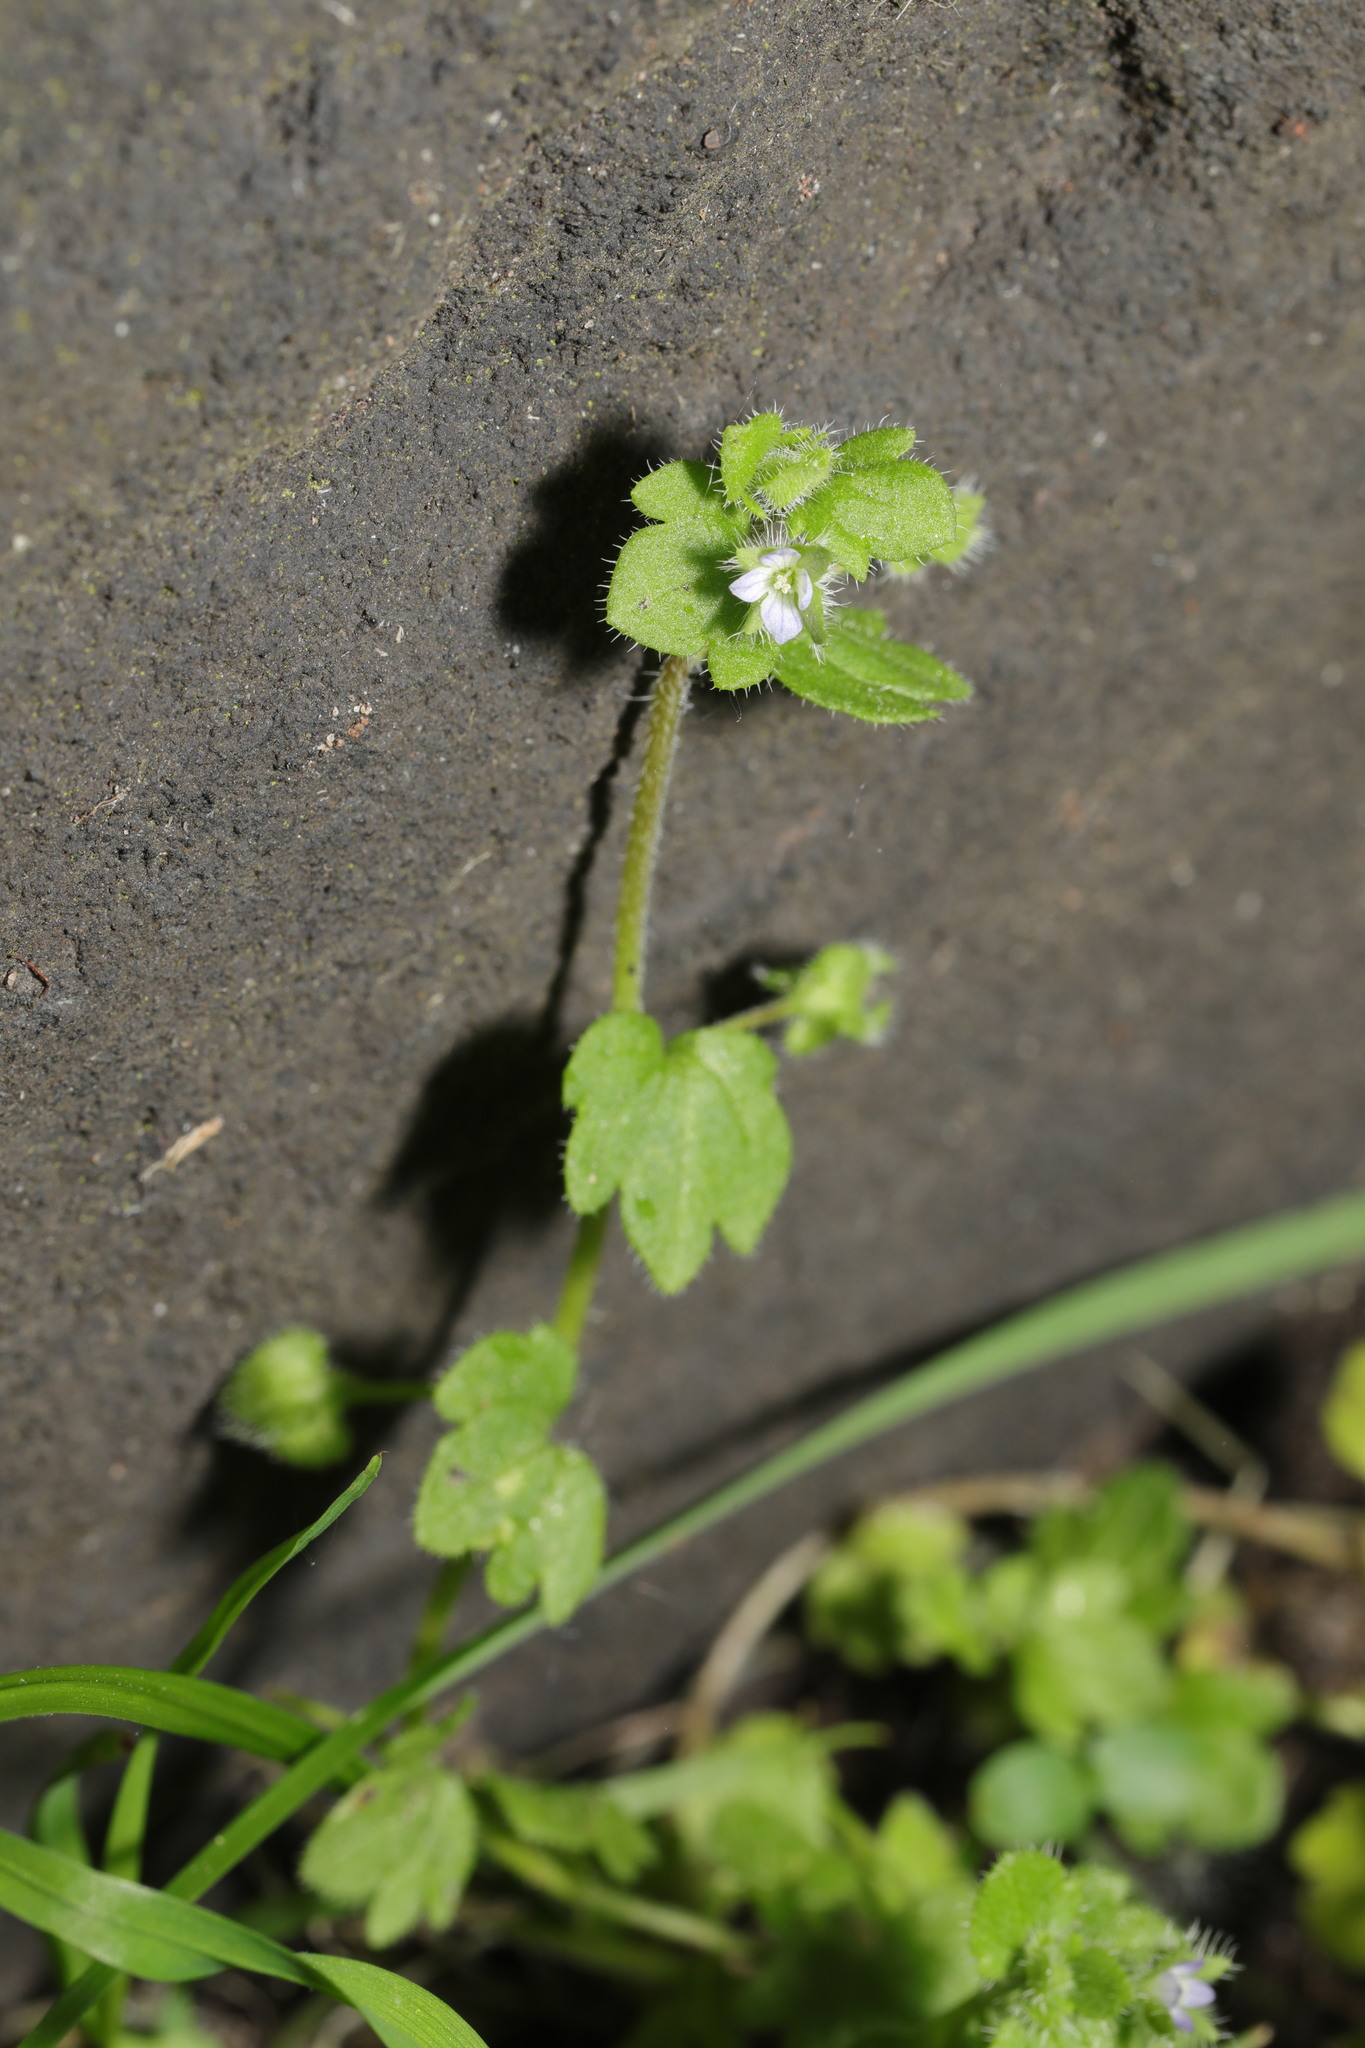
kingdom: Plantae
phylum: Tracheophyta
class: Magnoliopsida
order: Lamiales
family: Plantaginaceae
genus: Veronica
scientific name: Veronica hederifolia
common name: Ivy-leaved speedwell
